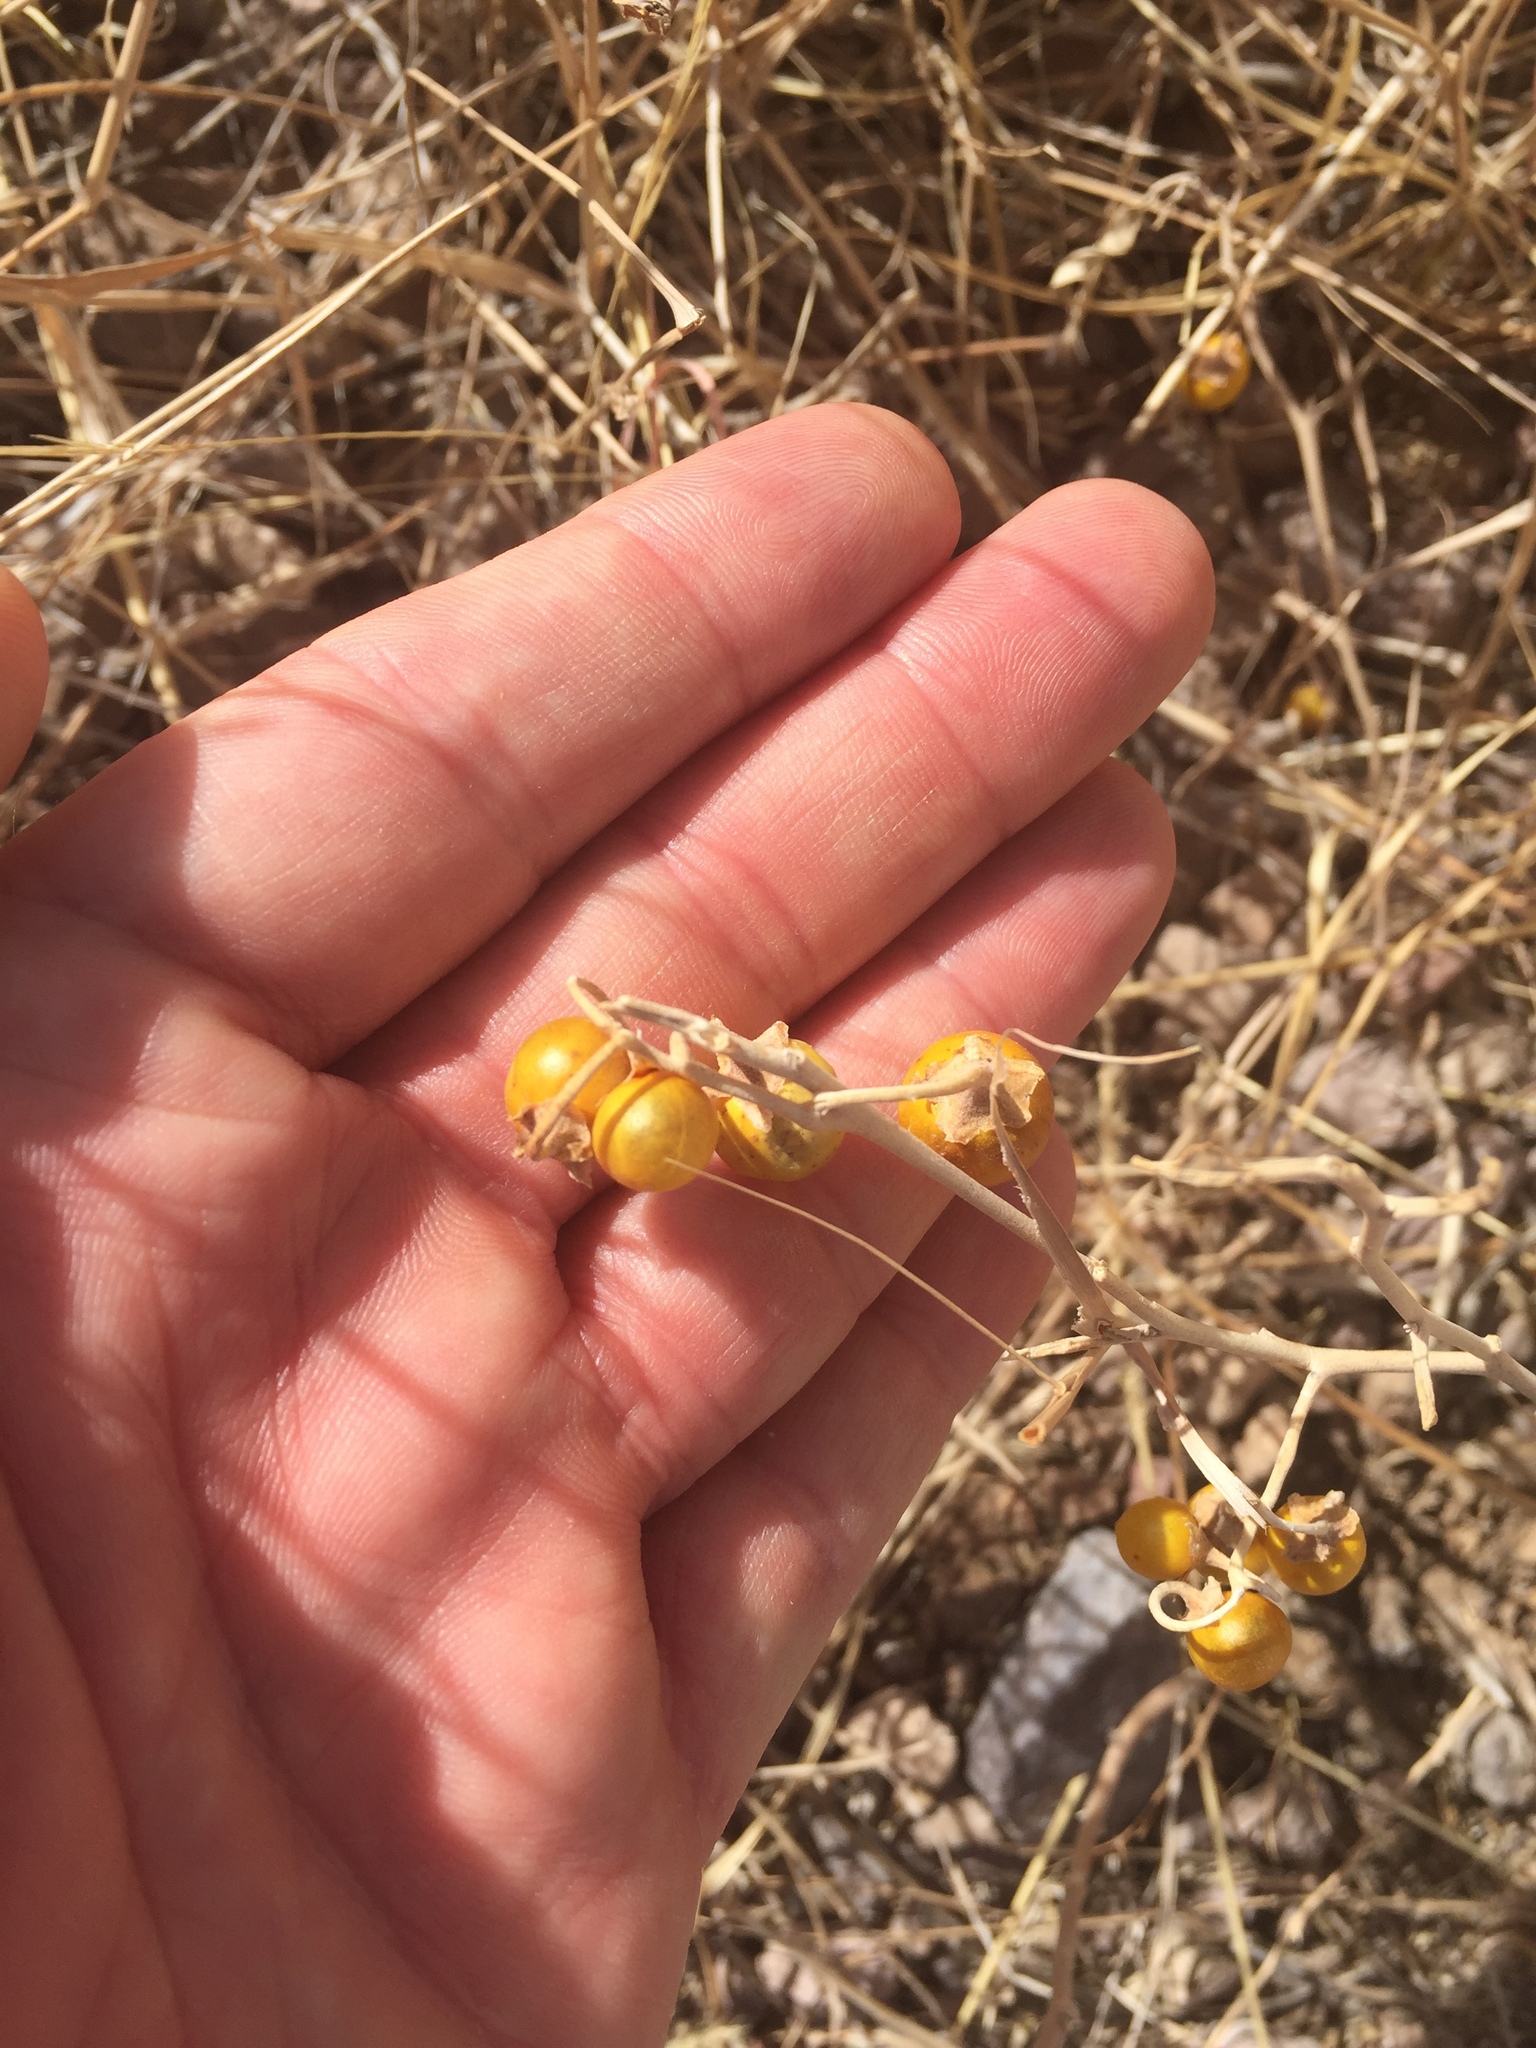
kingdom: Plantae
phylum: Tracheophyta
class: Magnoliopsida
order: Solanales
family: Solanaceae
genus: Solanum
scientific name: Solanum elaeagnifolium
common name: Silverleaf nightshade
